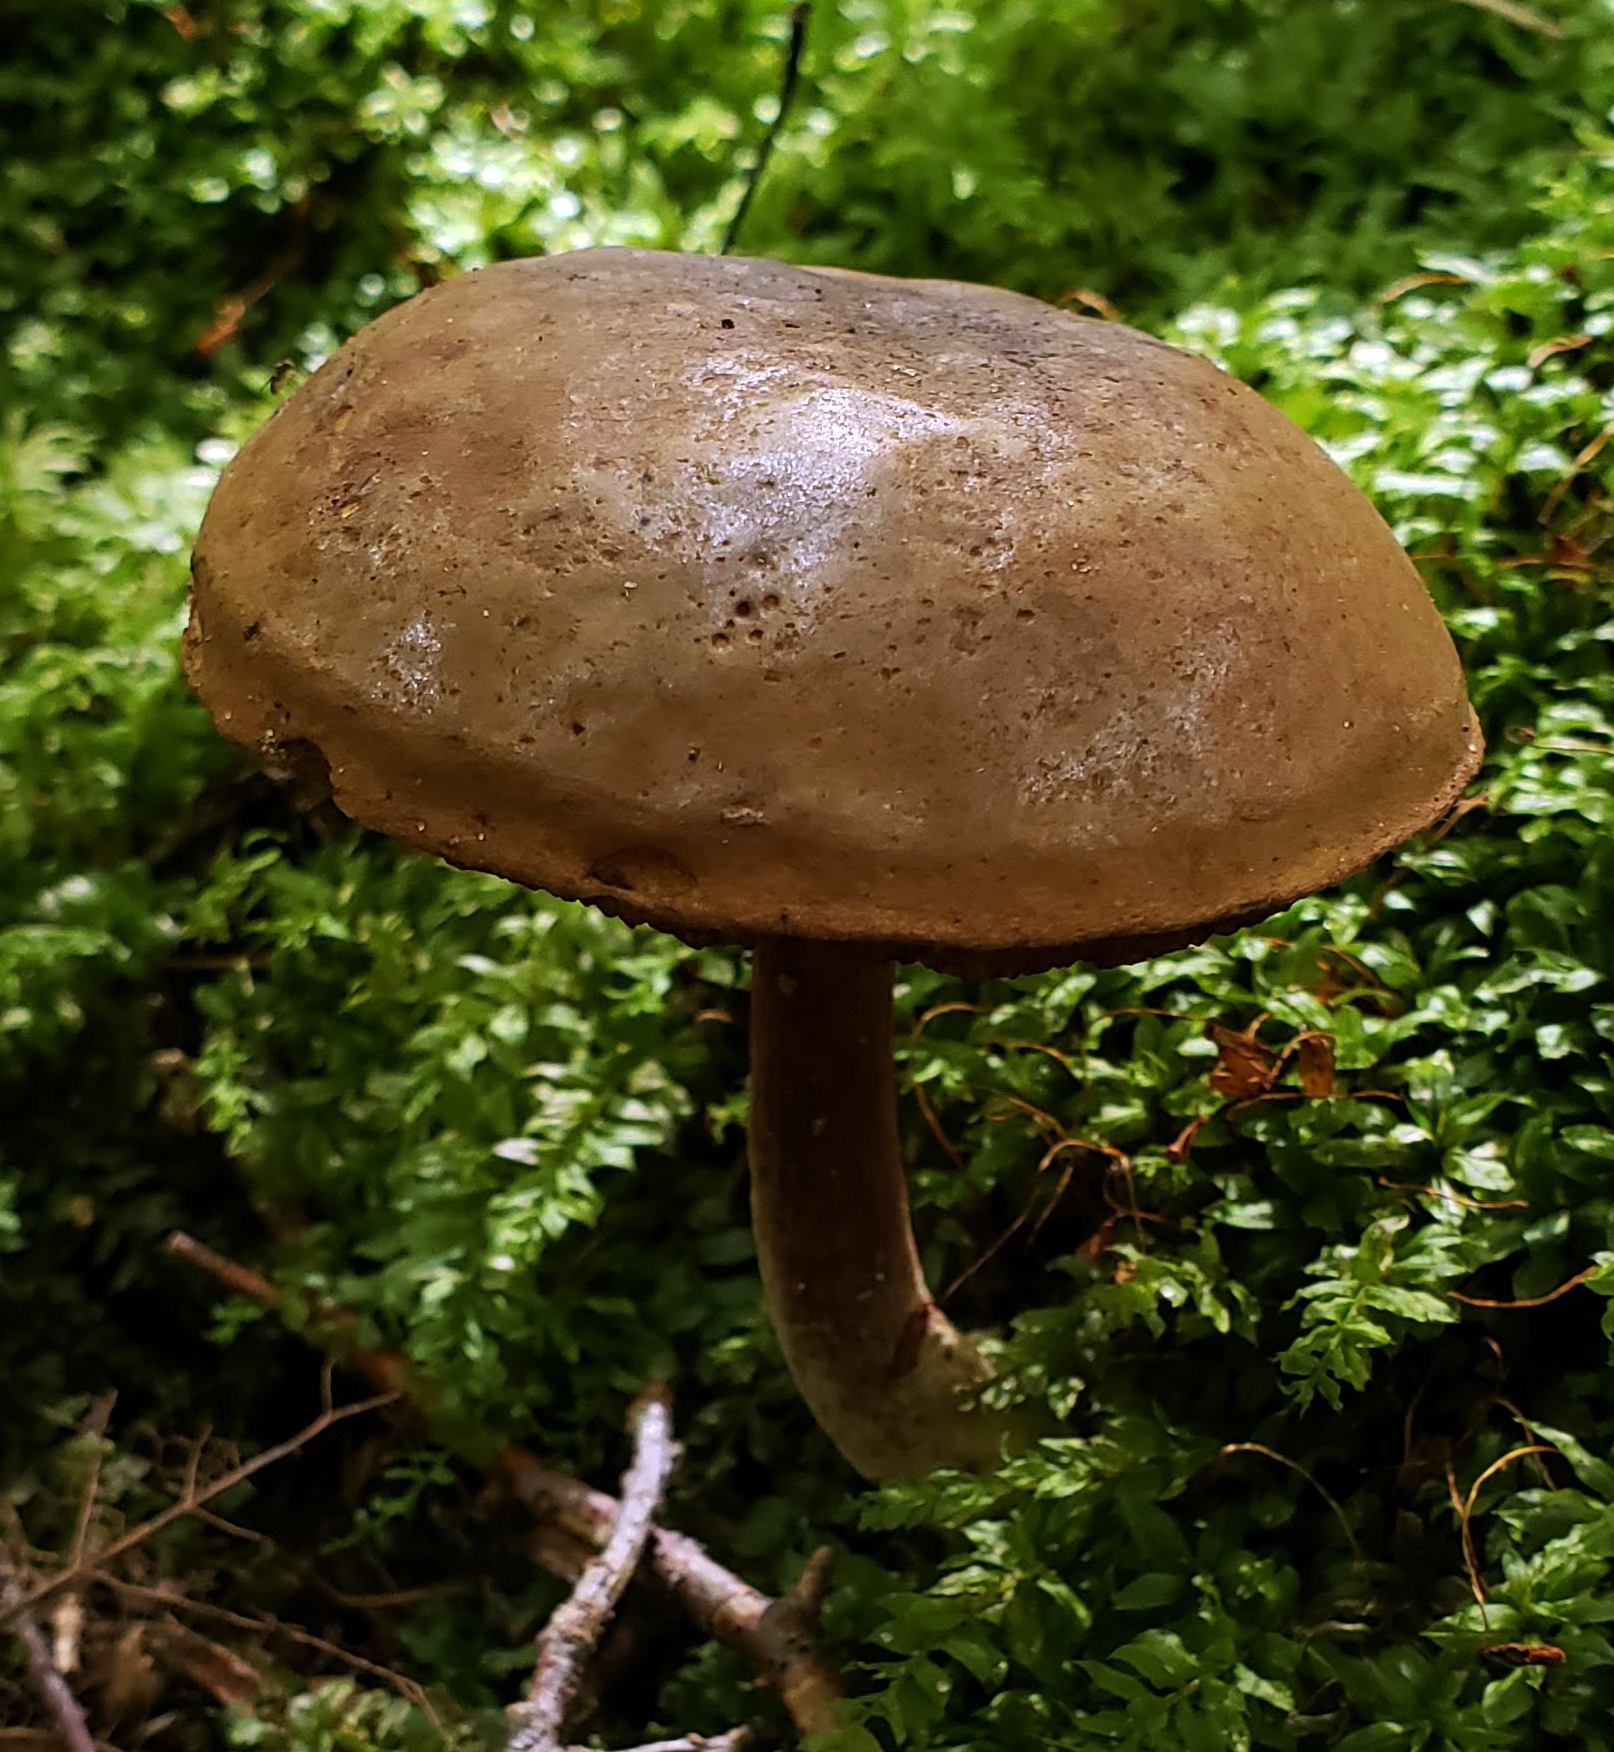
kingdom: Fungi
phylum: Basidiomycota
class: Agaricomycetes
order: Boletales
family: Boletaceae
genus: Cyanoboletus
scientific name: Cyanoboletus pulverulentus
